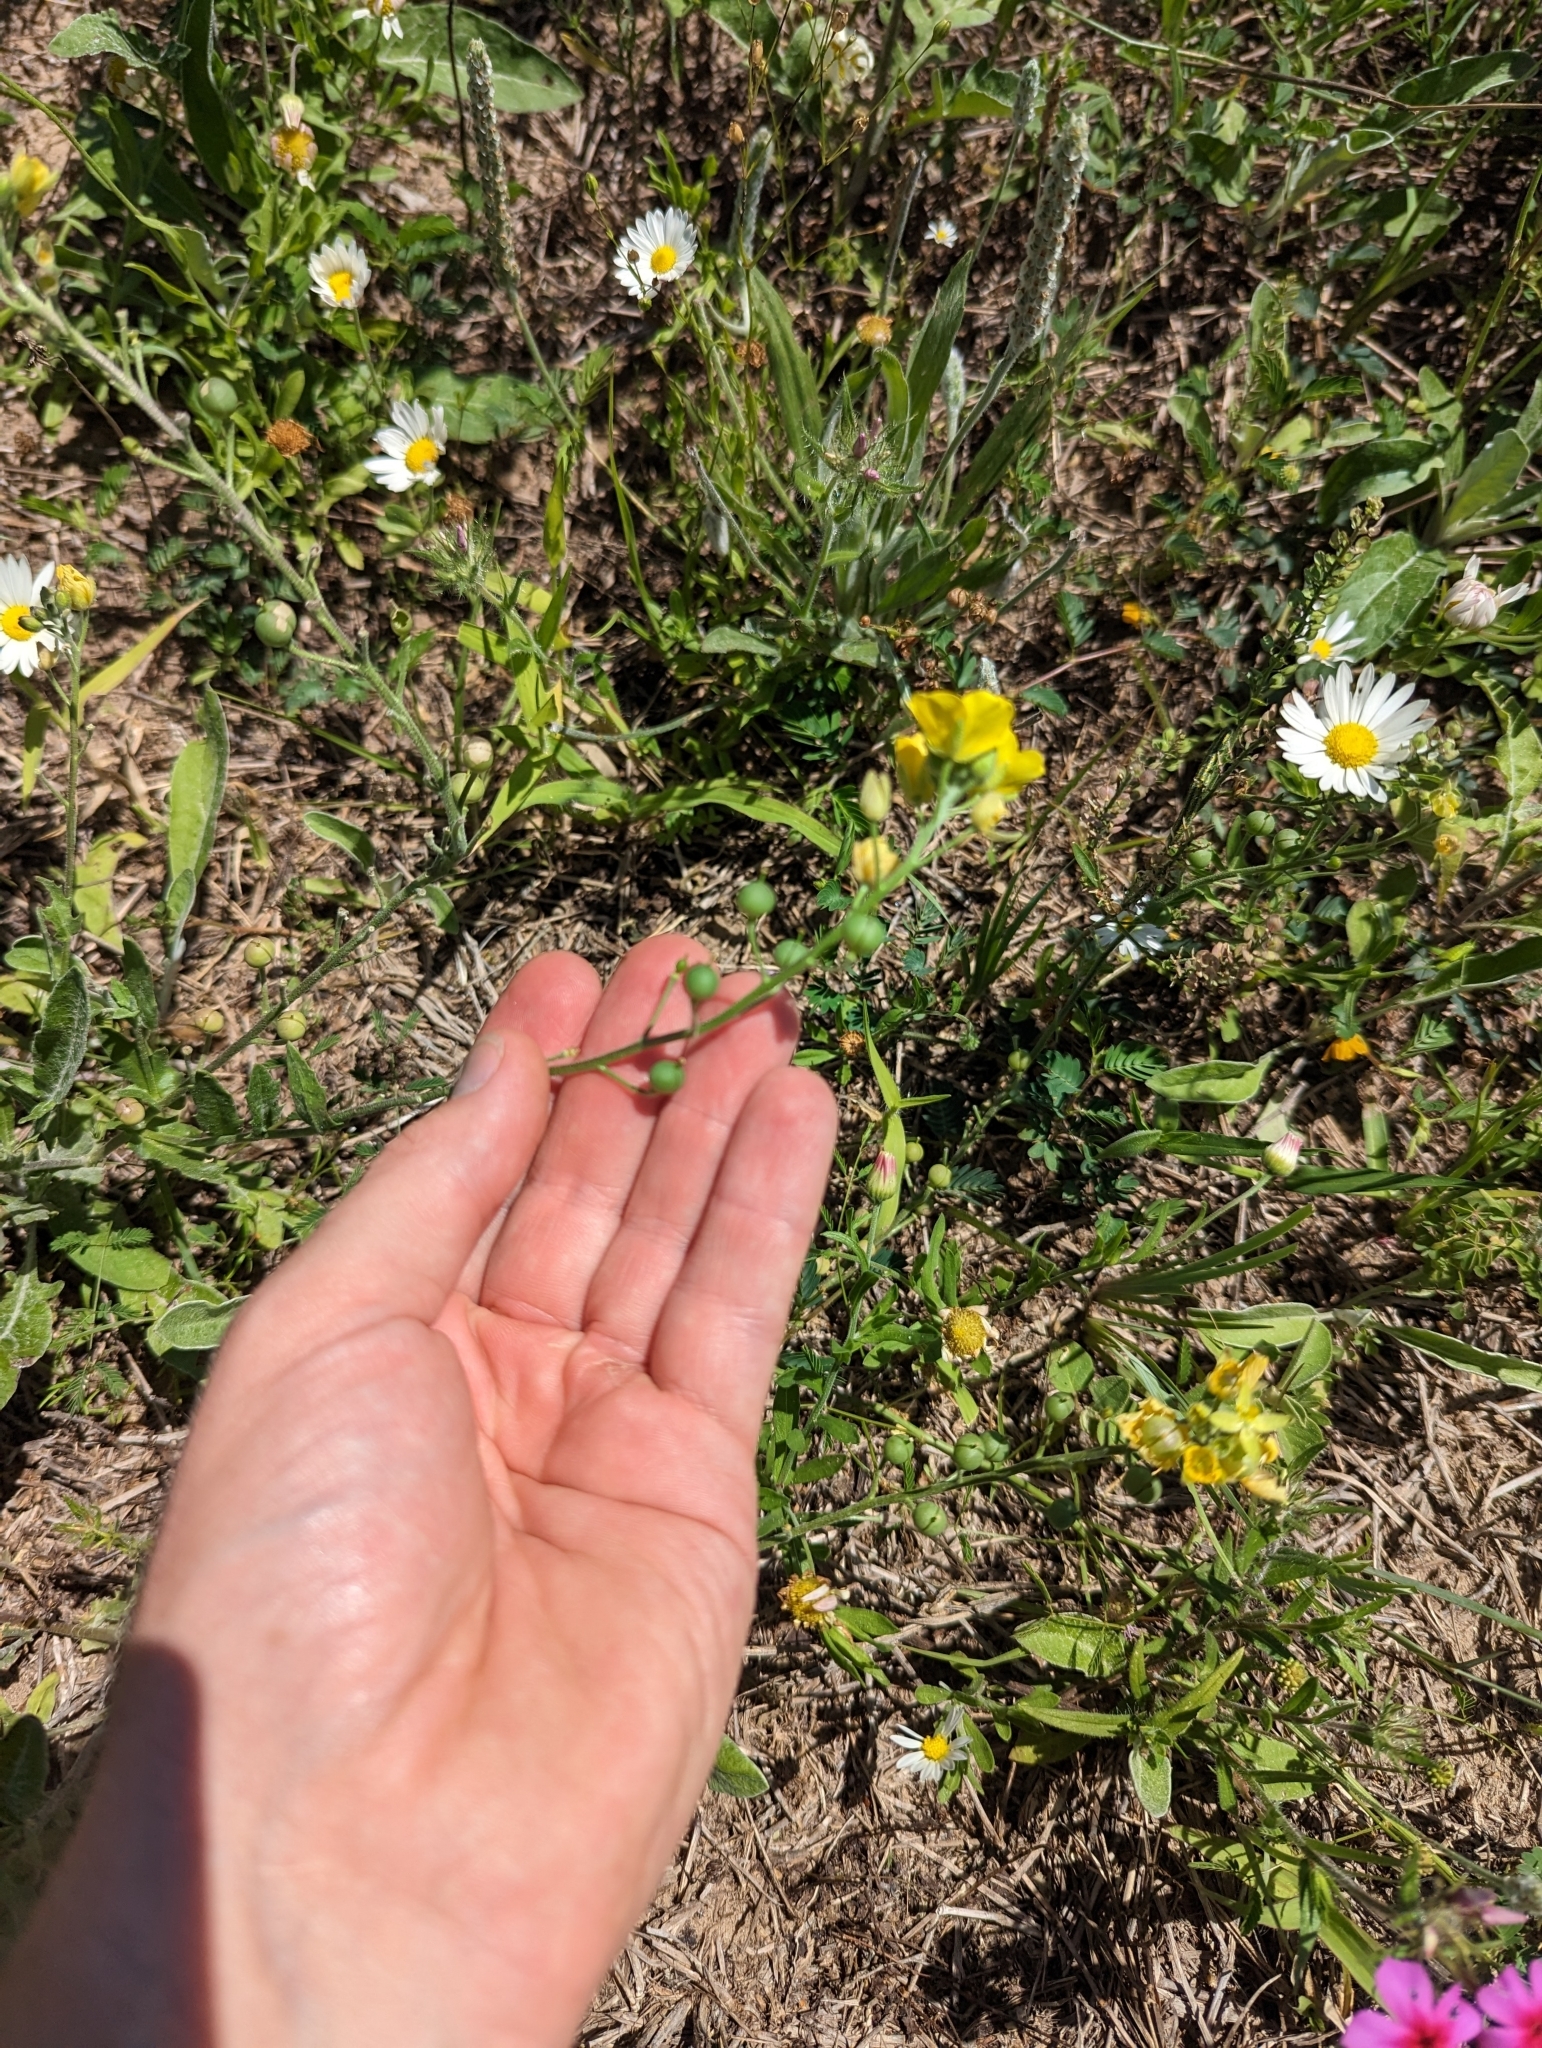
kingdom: Plantae
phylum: Tracheophyta
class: Magnoliopsida
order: Brassicales
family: Brassicaceae
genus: Physaria
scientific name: Physaria gracilis
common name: Spreading bladderpod
